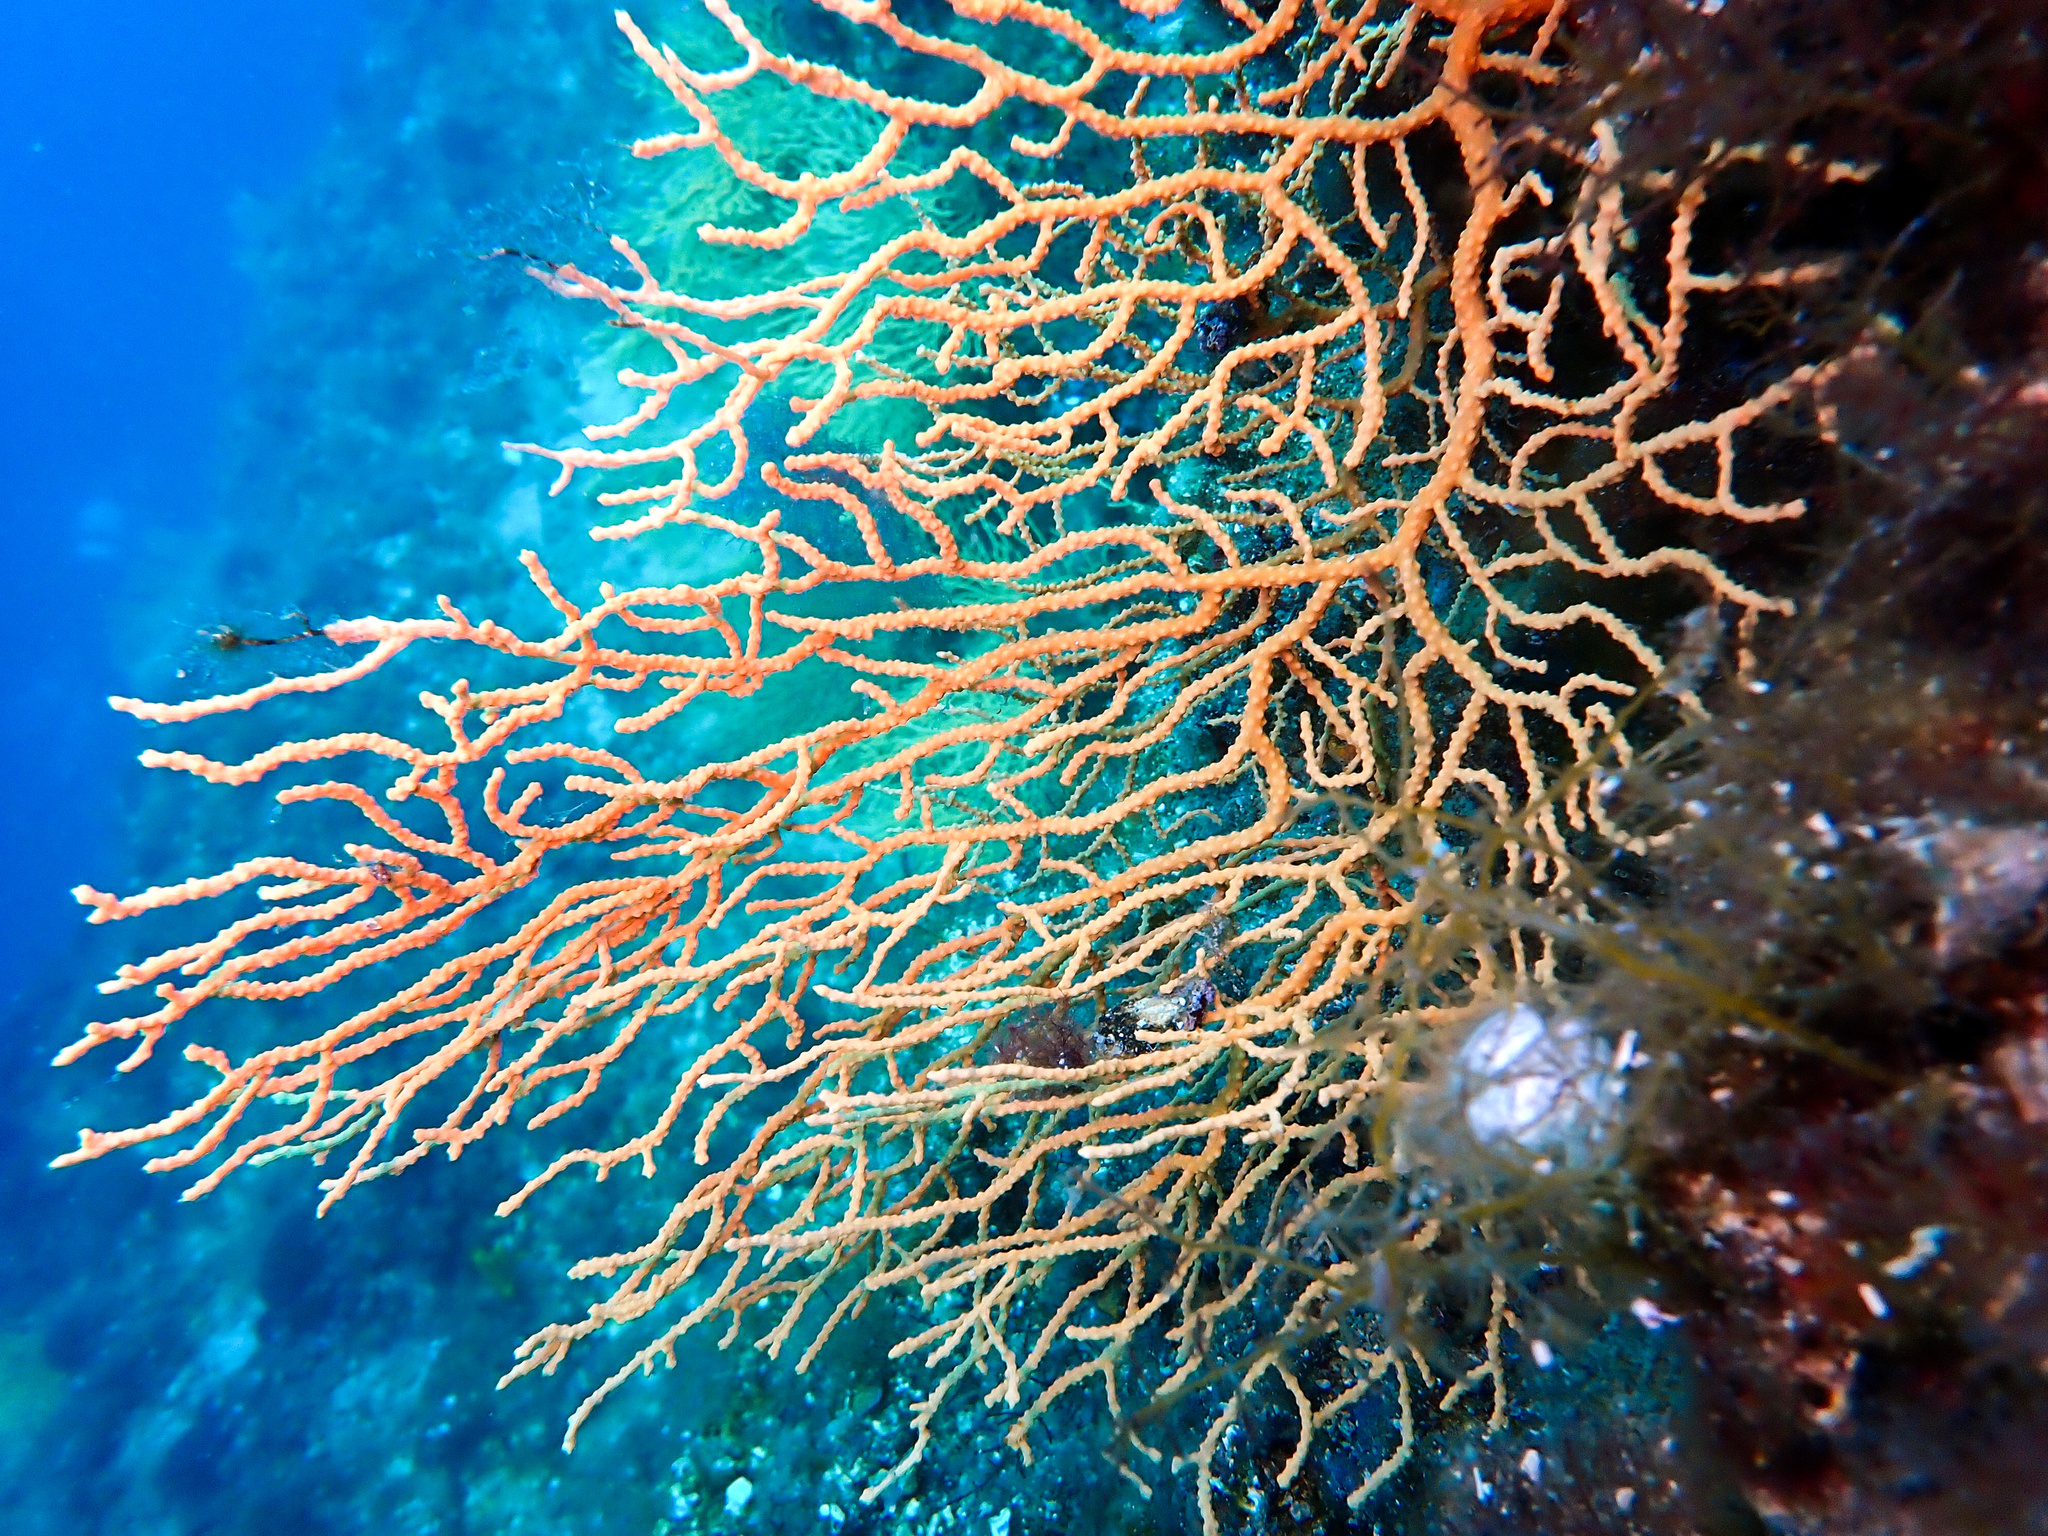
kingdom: Animalia
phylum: Cnidaria
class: Anthozoa
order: Malacalcyonacea
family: Eunicellidae
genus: Eunicella
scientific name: Eunicella cavolini
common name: Yellow gorgonian
